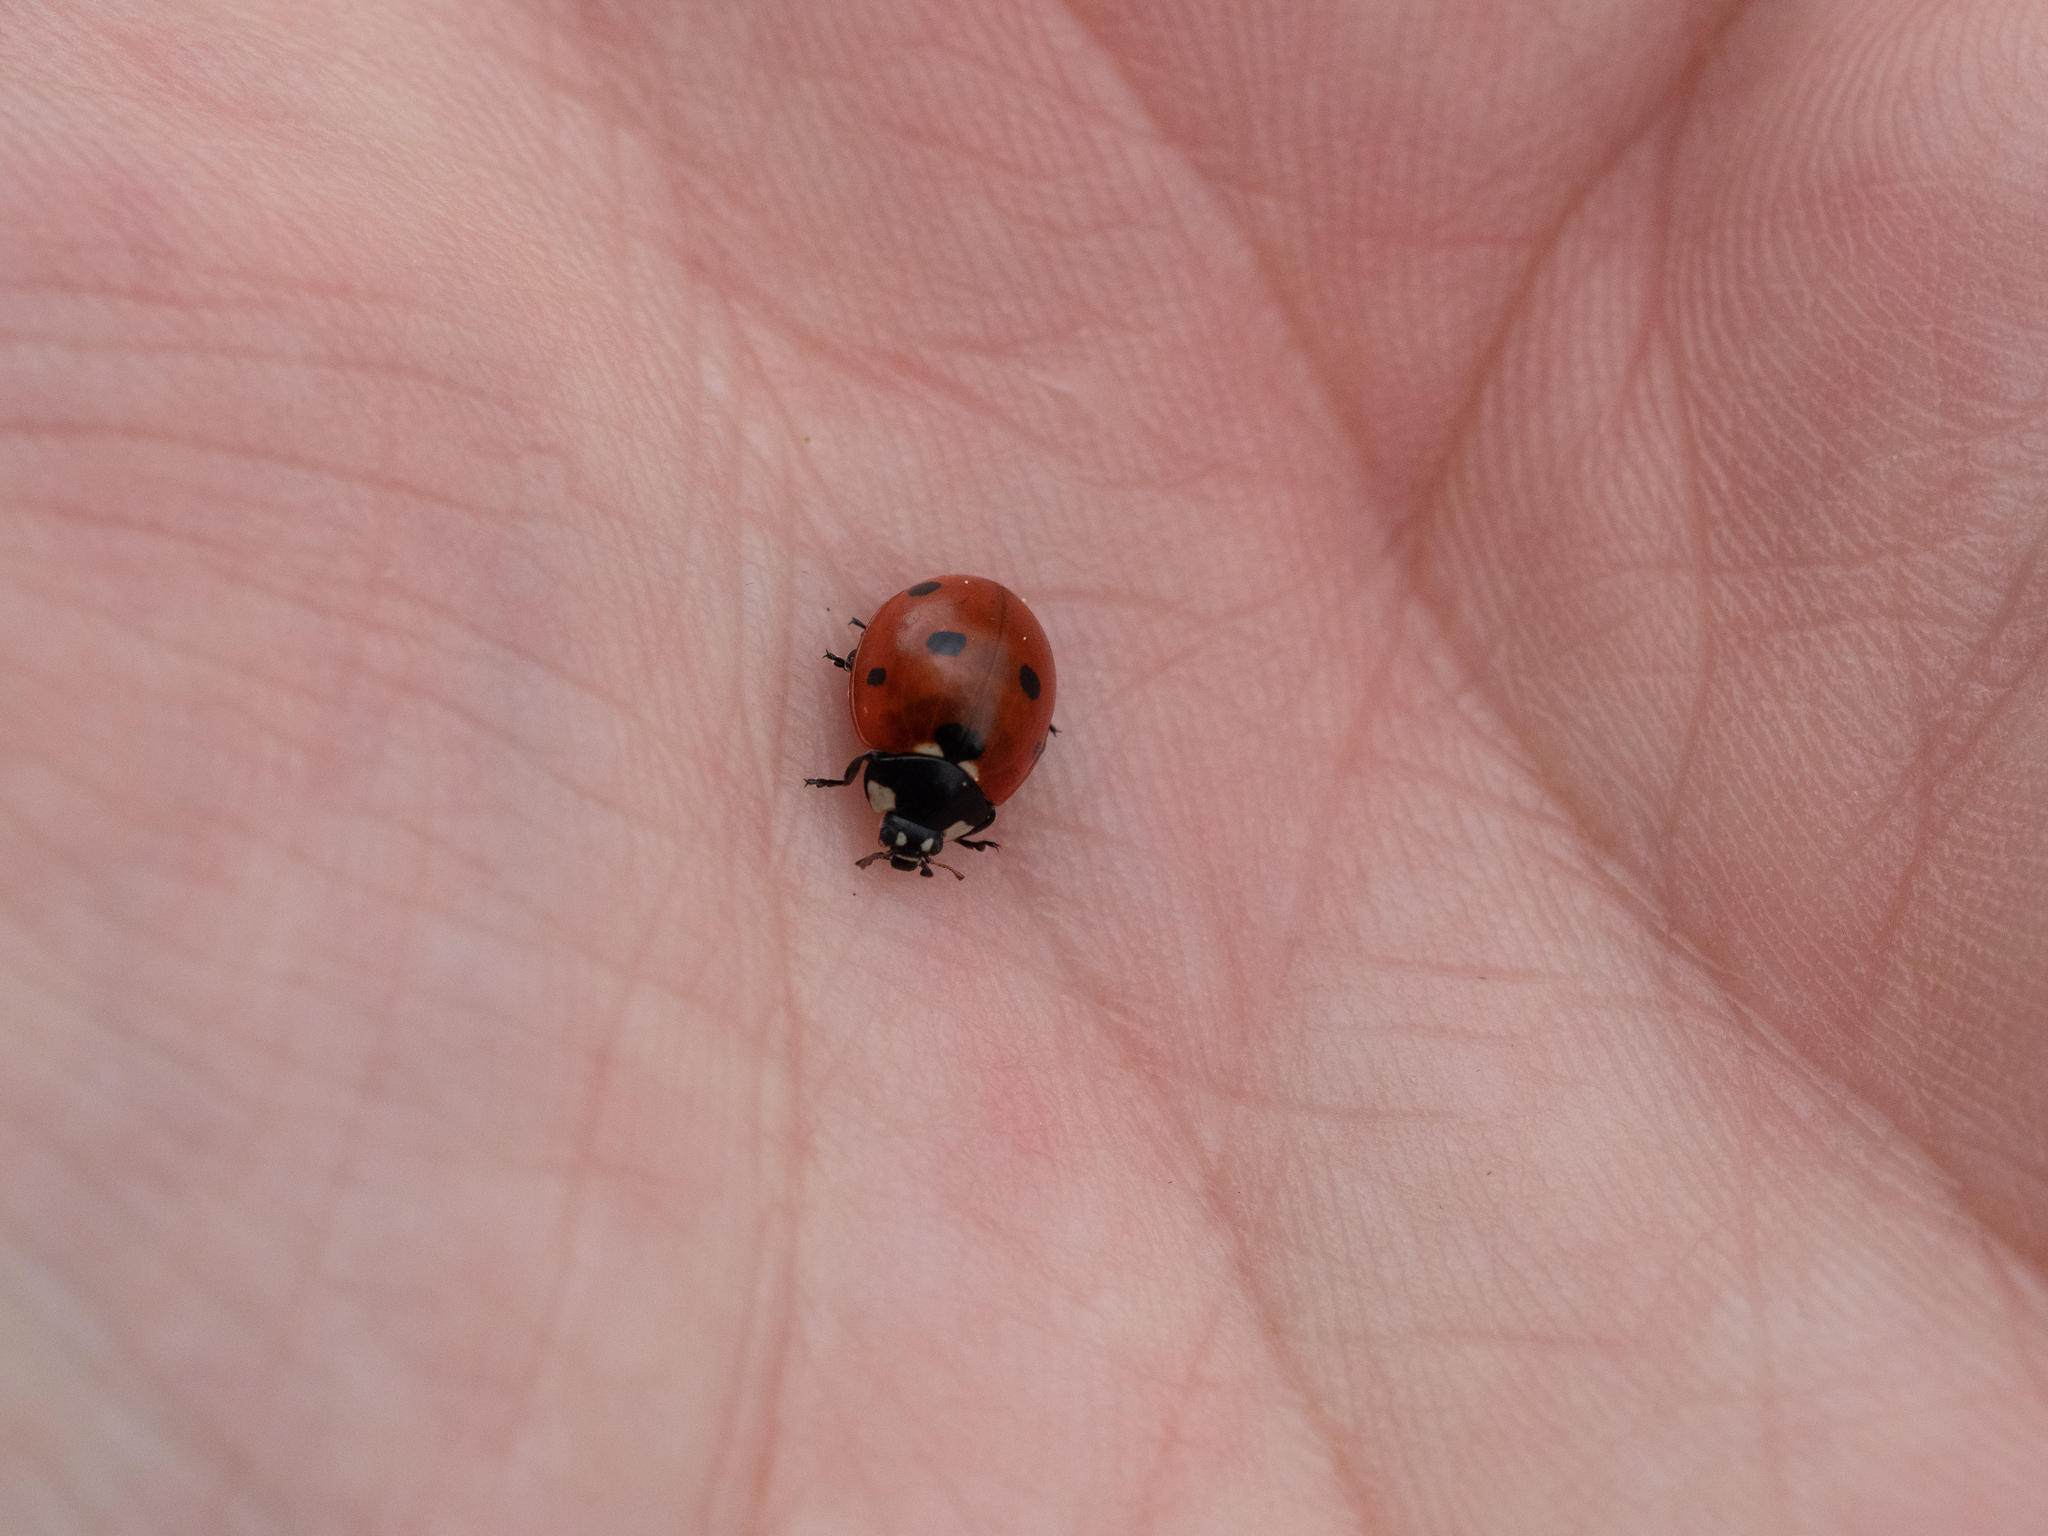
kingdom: Animalia
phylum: Arthropoda
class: Insecta
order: Coleoptera
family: Coccinellidae
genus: Coccinella
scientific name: Coccinella septempunctata
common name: Sevenspotted lady beetle
